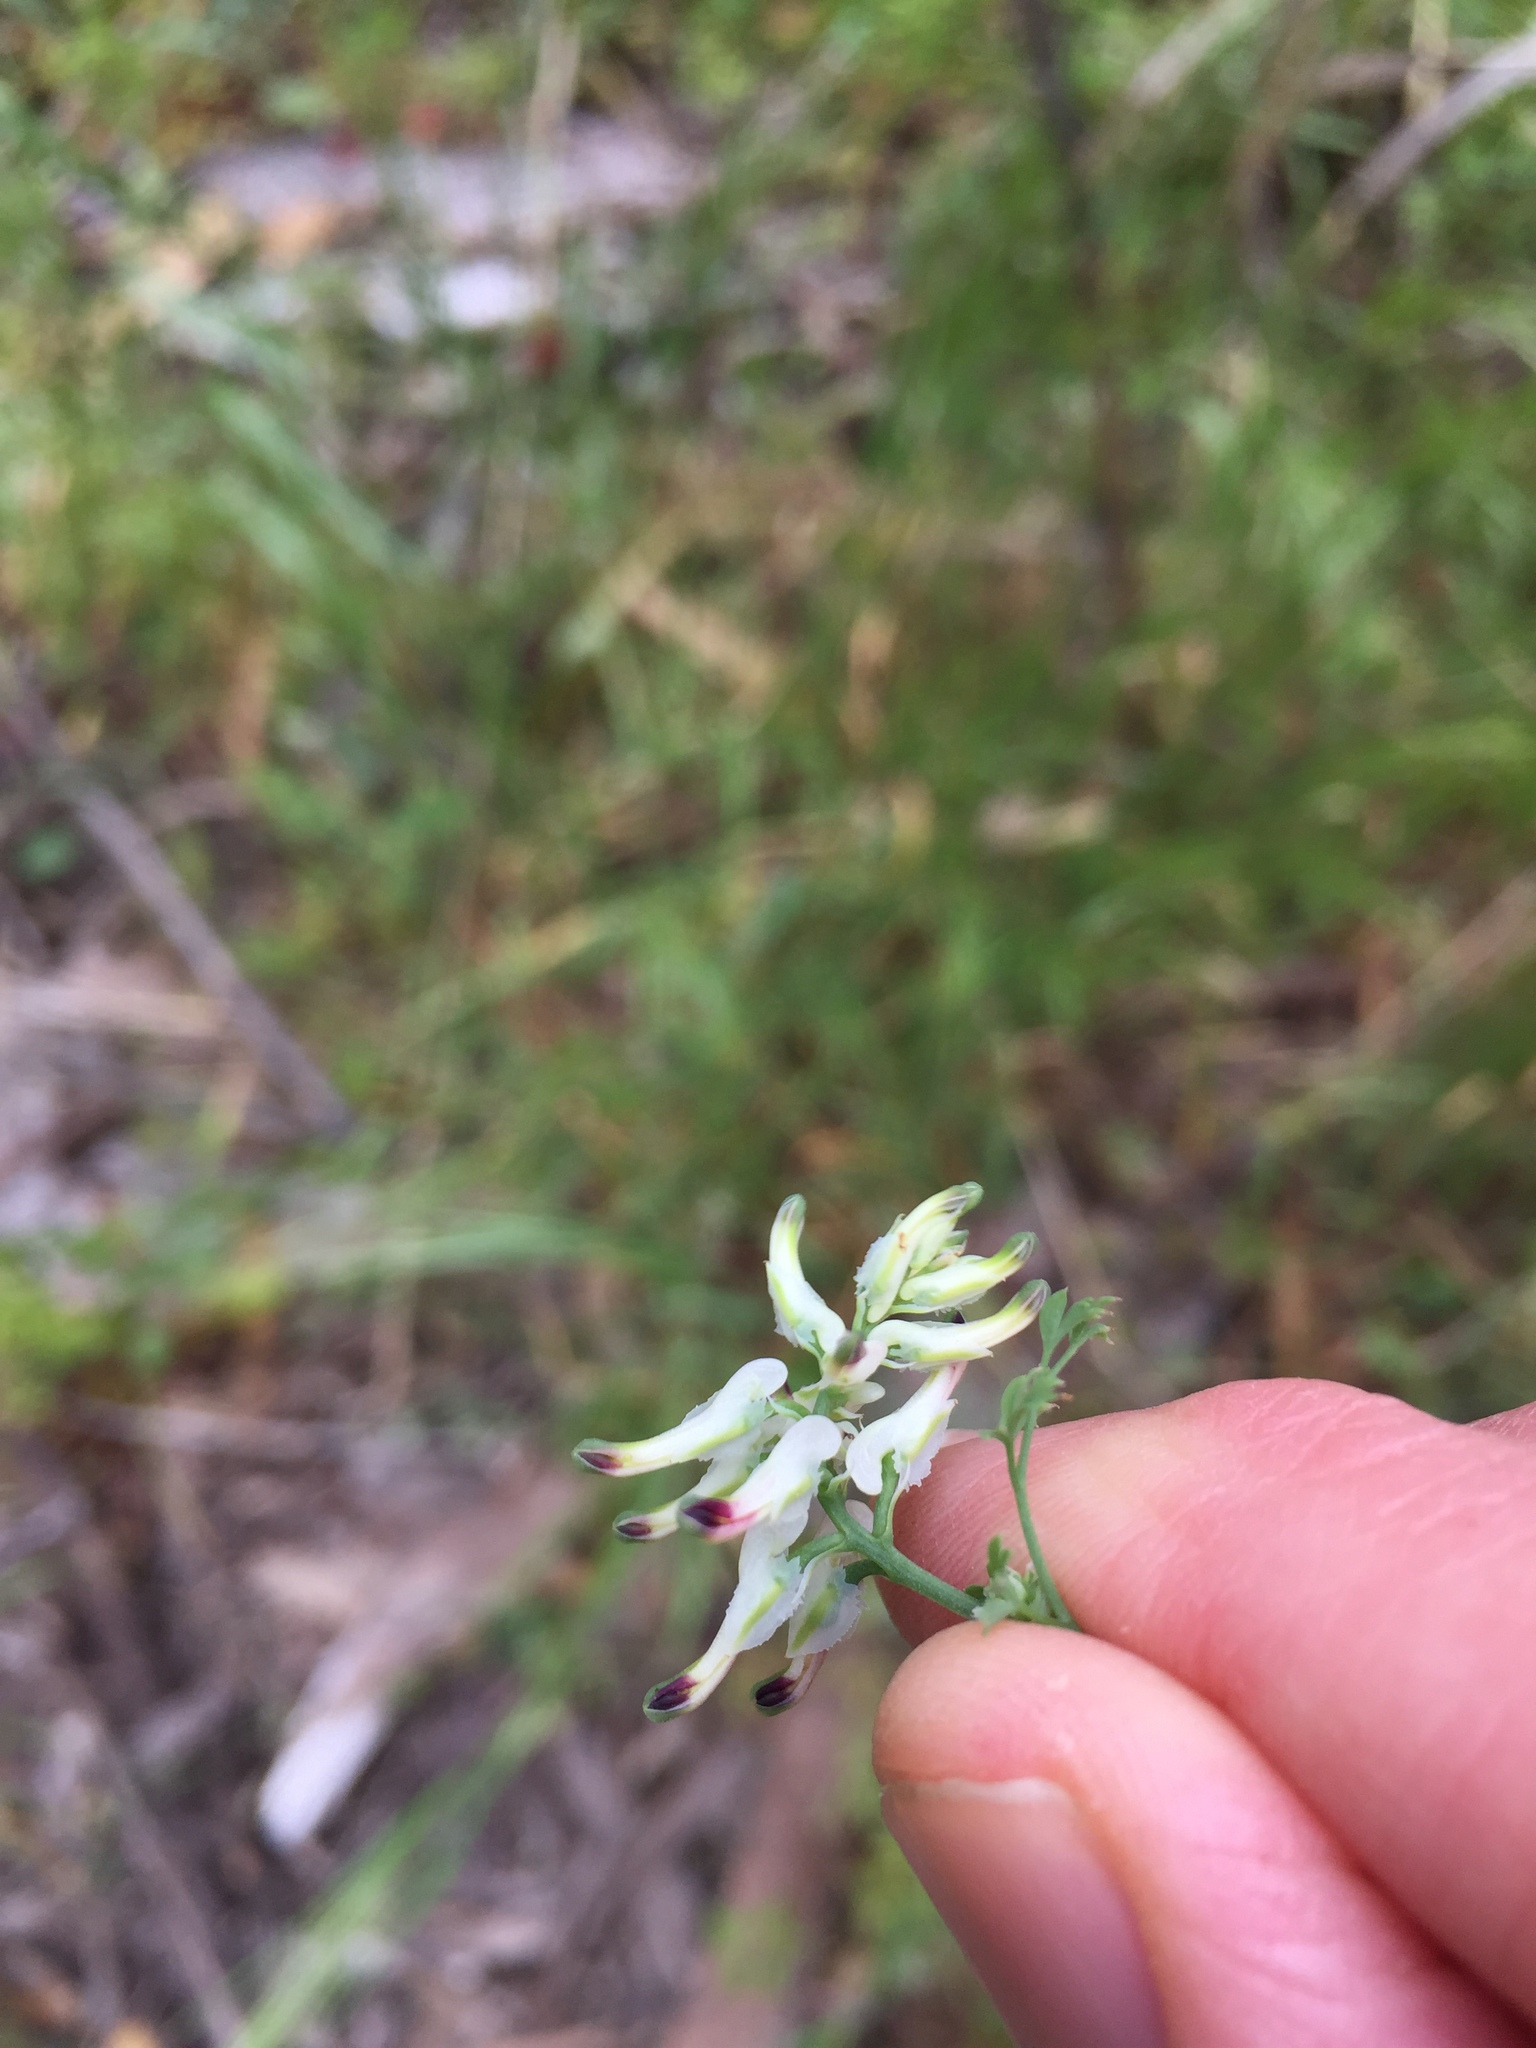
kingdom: Plantae
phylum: Tracheophyta
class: Magnoliopsida
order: Ranunculales
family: Papaveraceae
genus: Fumaria
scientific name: Fumaria capreolata
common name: White ramping-fumitory
